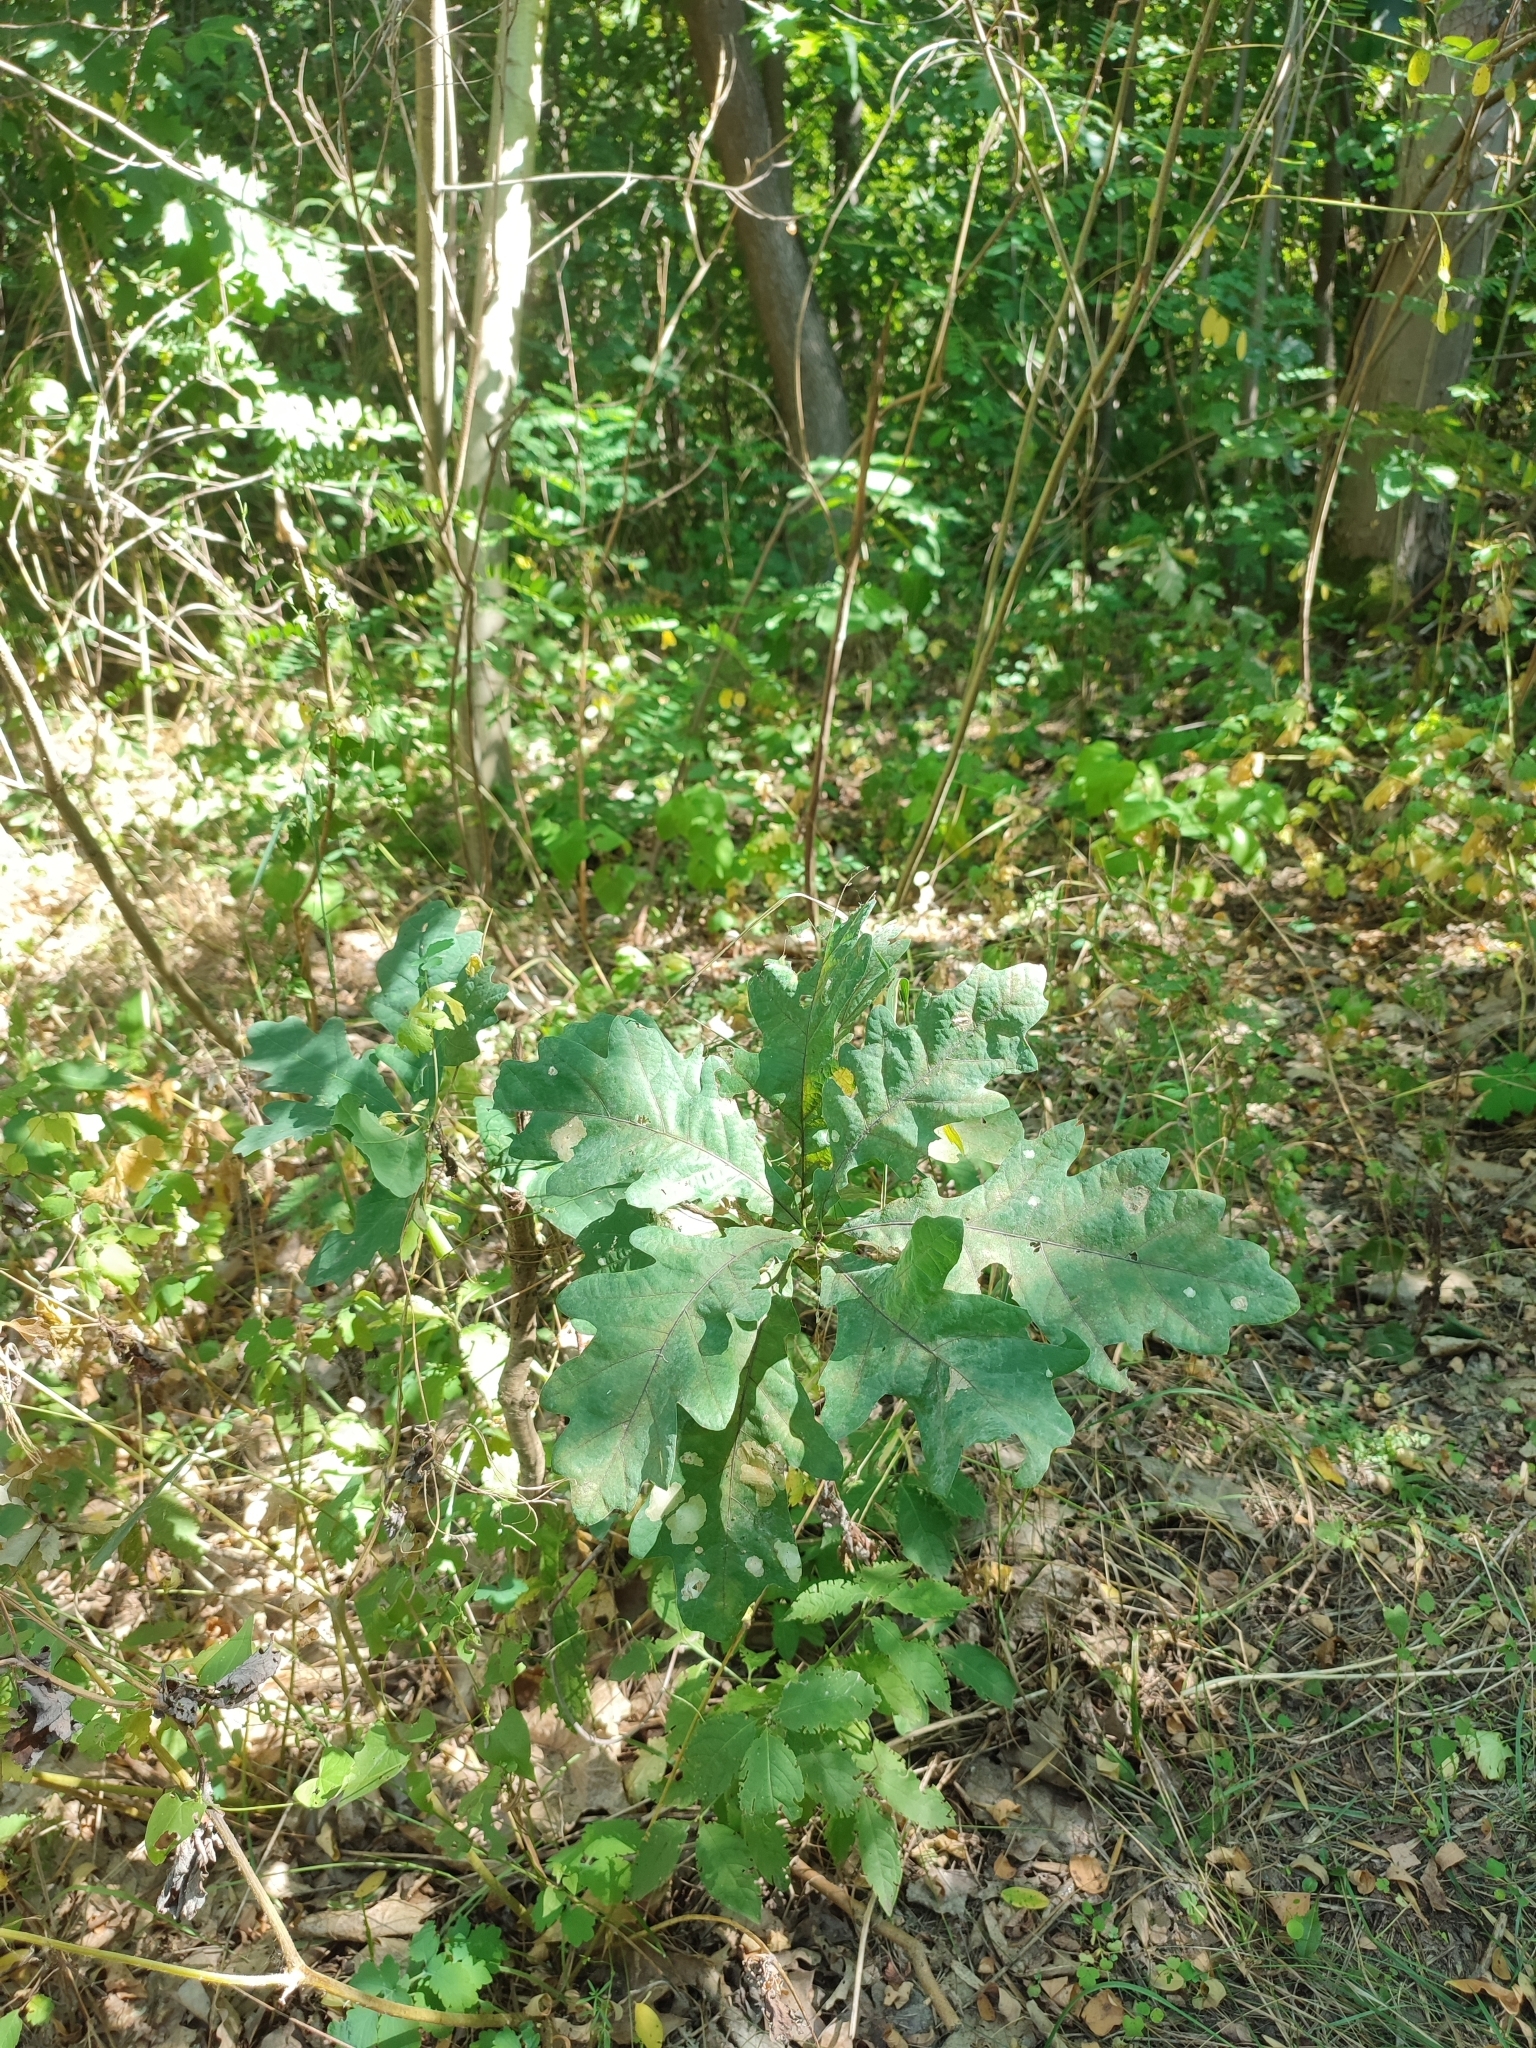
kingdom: Plantae
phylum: Tracheophyta
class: Magnoliopsida
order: Fagales
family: Fagaceae
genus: Quercus
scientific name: Quercus robur
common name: Pedunculate oak
